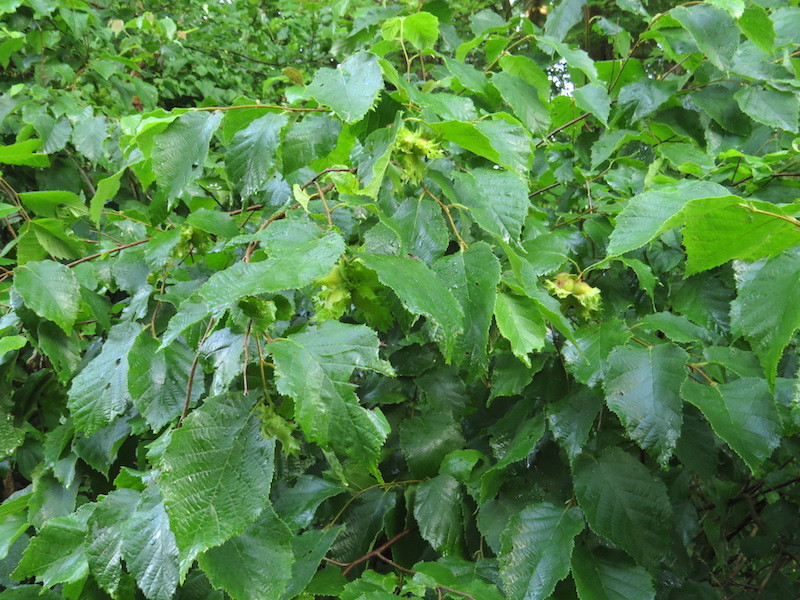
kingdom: Plantae
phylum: Tracheophyta
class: Magnoliopsida
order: Fagales
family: Betulaceae
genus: Corylus
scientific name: Corylus americana
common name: American hazel
